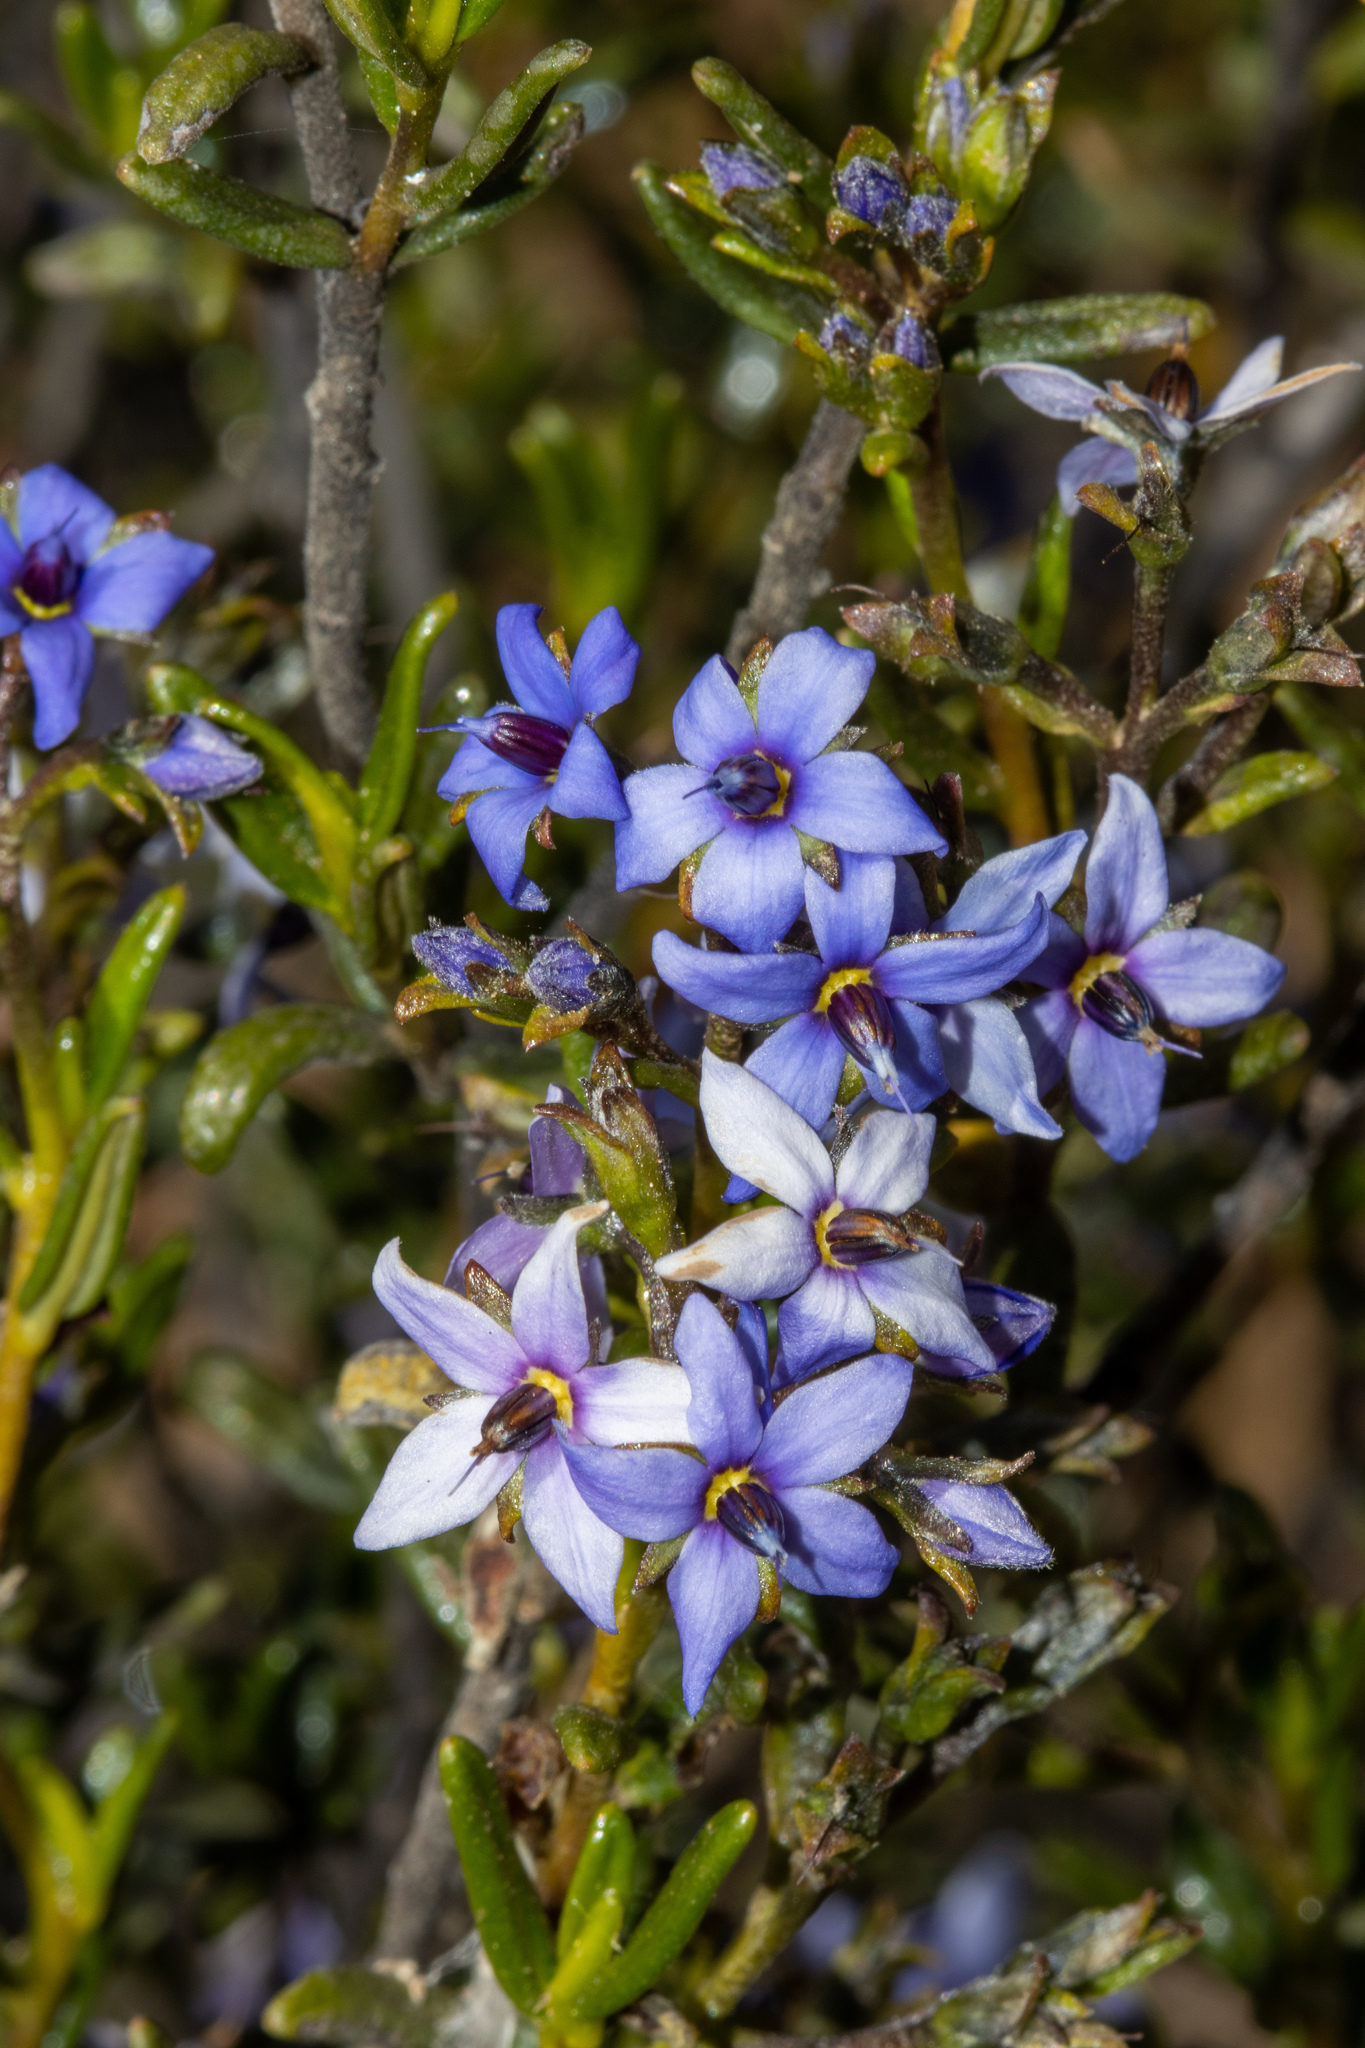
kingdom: Plantae
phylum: Tracheophyta
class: Magnoliopsida
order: Boraginales
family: Ehretiaceae
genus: Halgania
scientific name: Halgania andromedifolia
